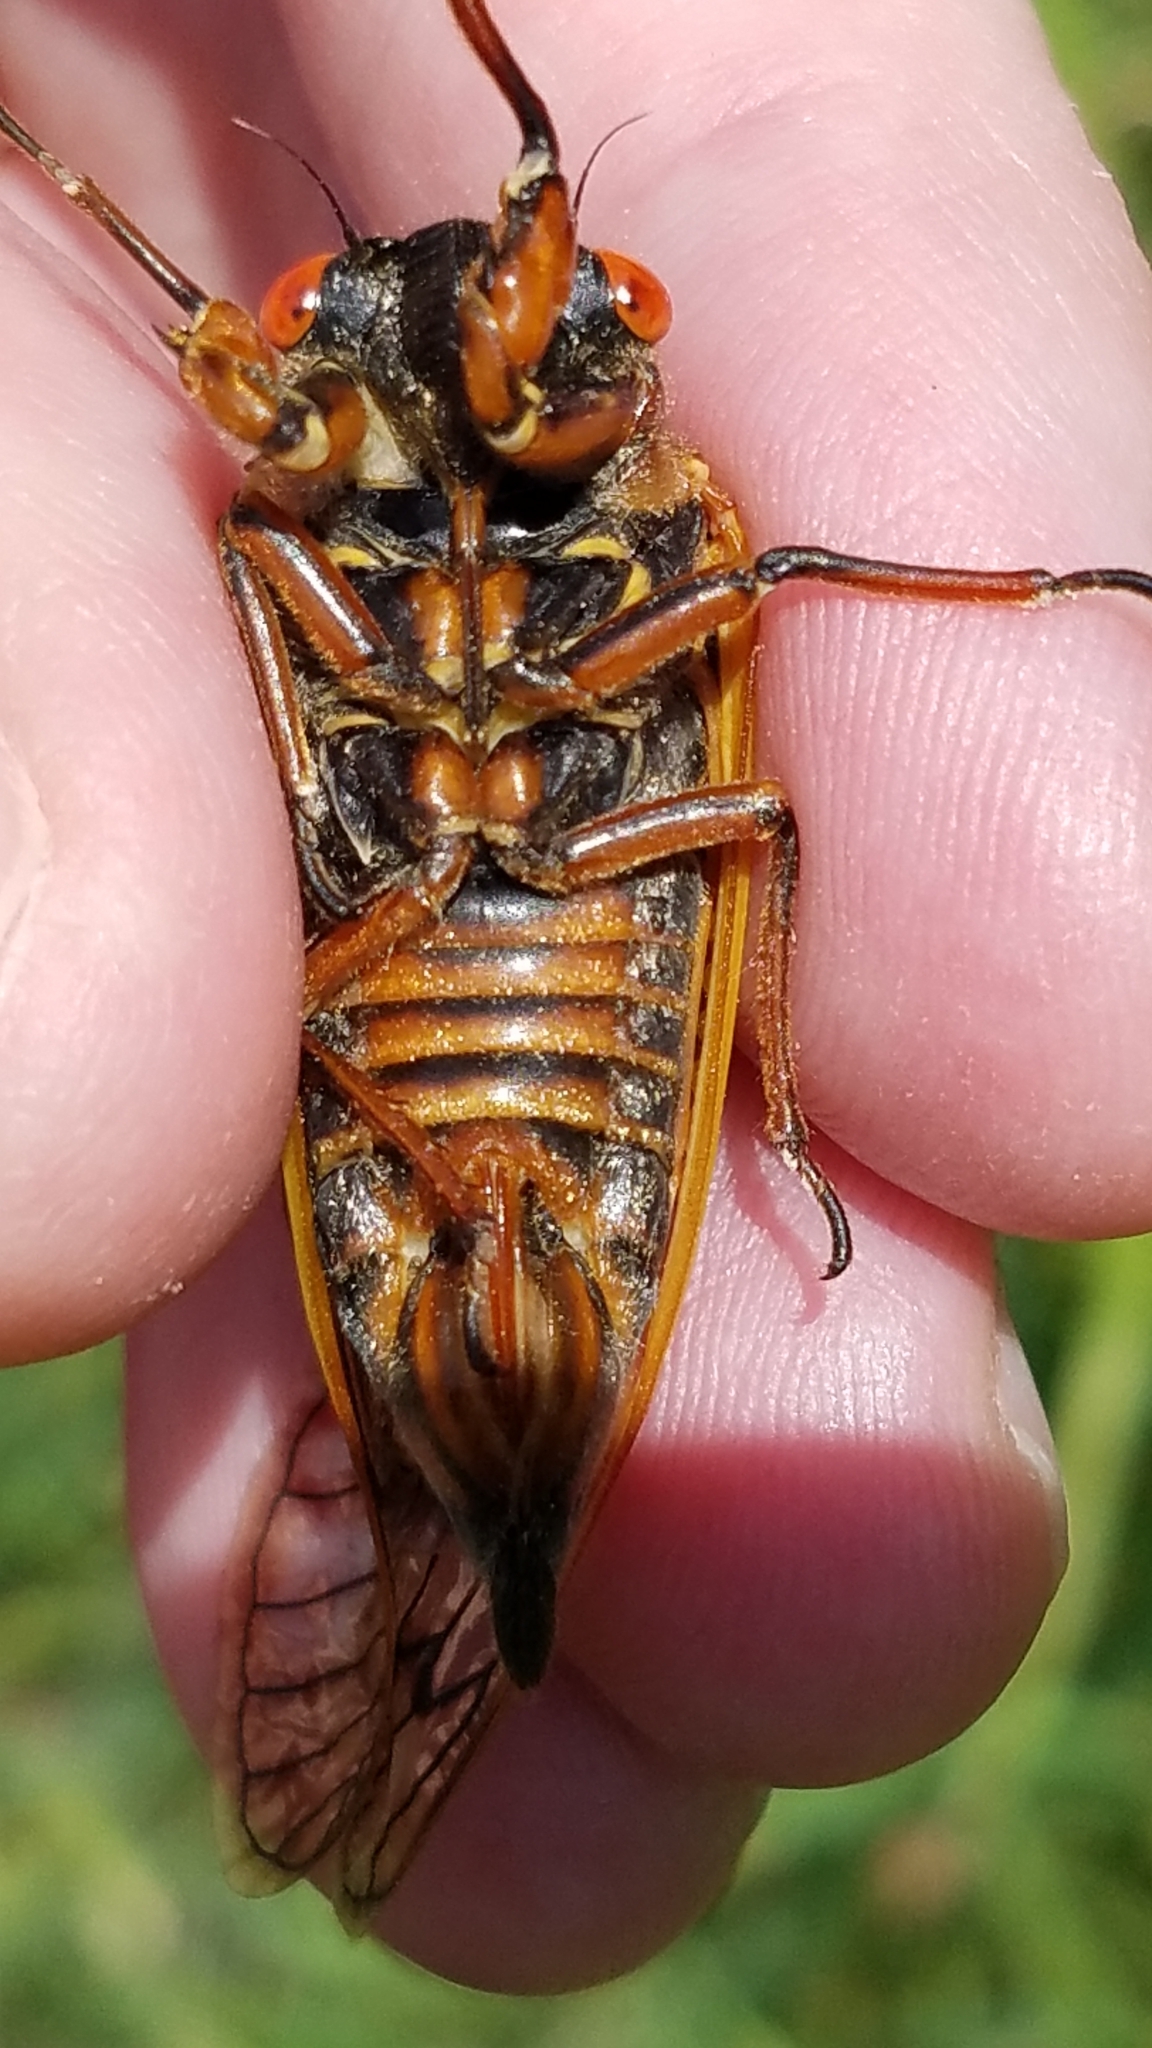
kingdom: Animalia
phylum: Arthropoda
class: Insecta
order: Hemiptera
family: Cicadidae
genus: Magicicada
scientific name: Magicicada septendecim
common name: Periodical cicada
